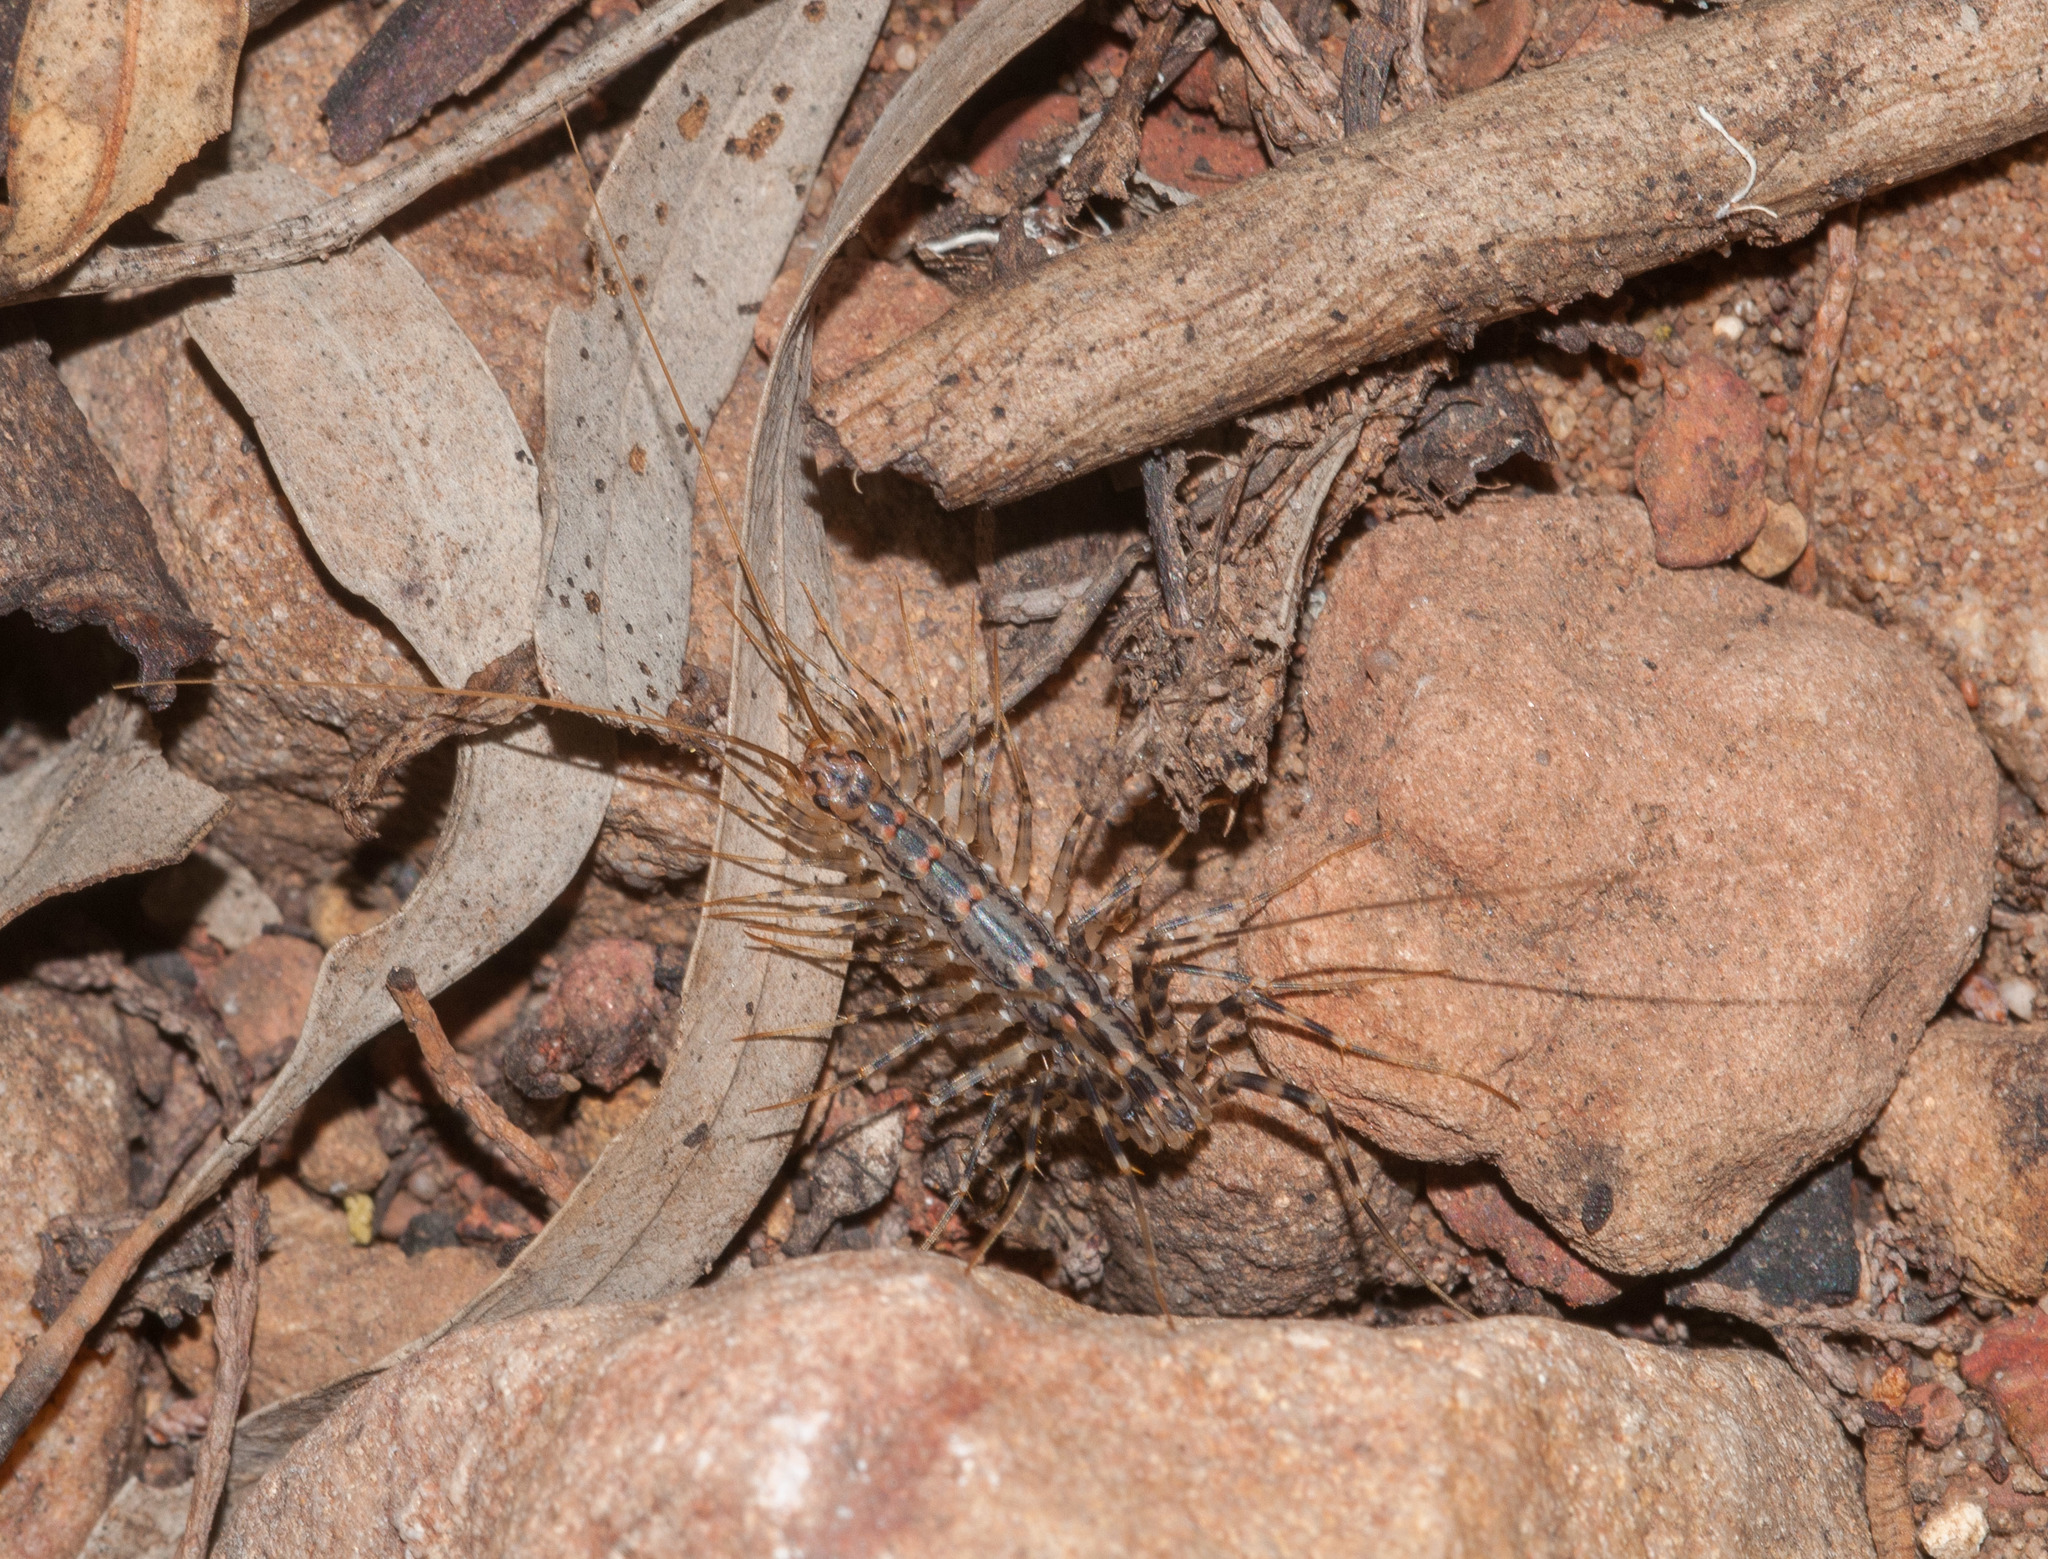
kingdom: Animalia
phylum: Arthropoda
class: Chilopoda
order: Scutigeromorpha
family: Scutigeridae
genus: Allothereua
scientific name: Allothereua maculata
